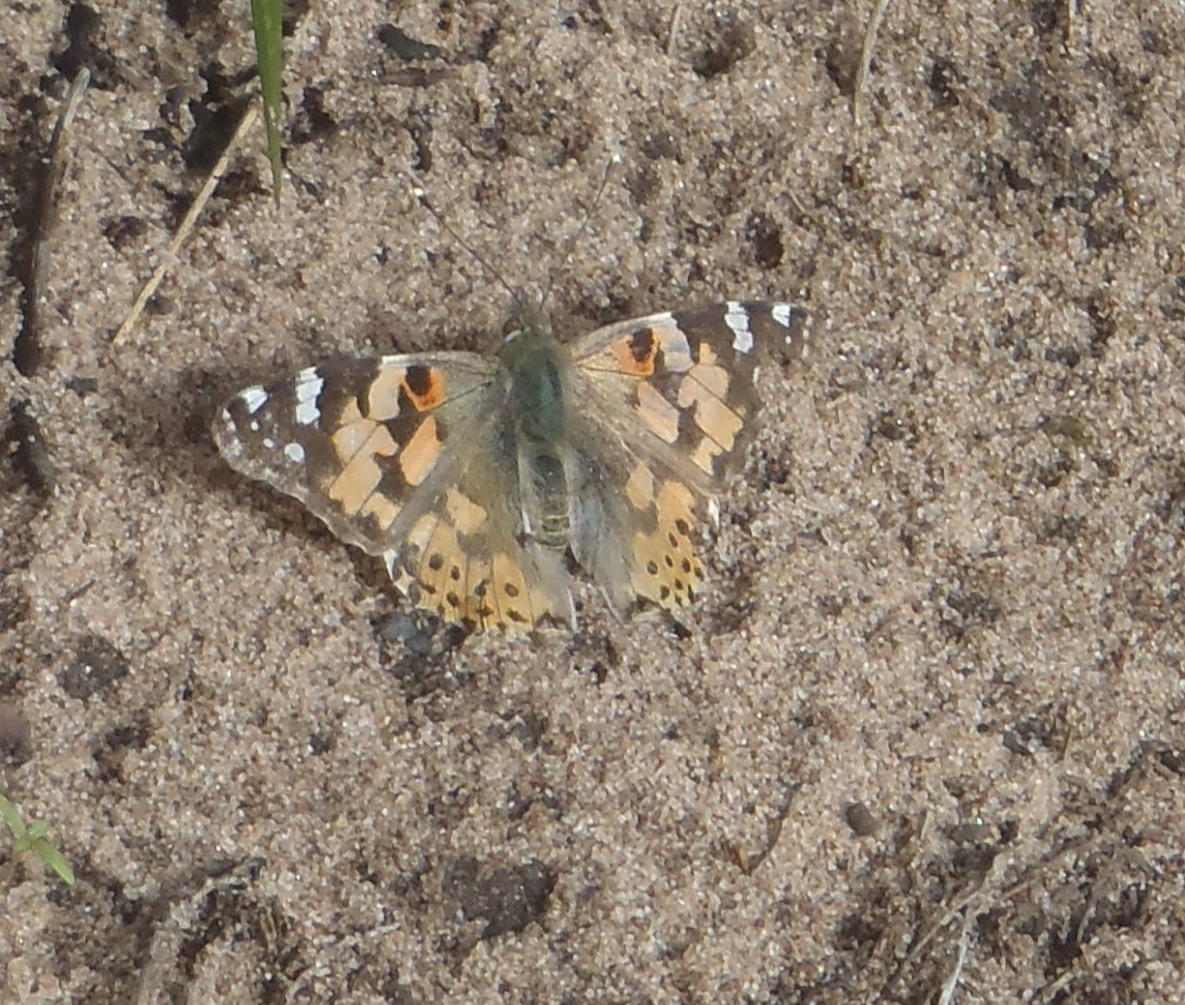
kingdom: Animalia
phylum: Arthropoda
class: Insecta
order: Lepidoptera
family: Nymphalidae
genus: Vanessa
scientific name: Vanessa cardui
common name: Painted lady
